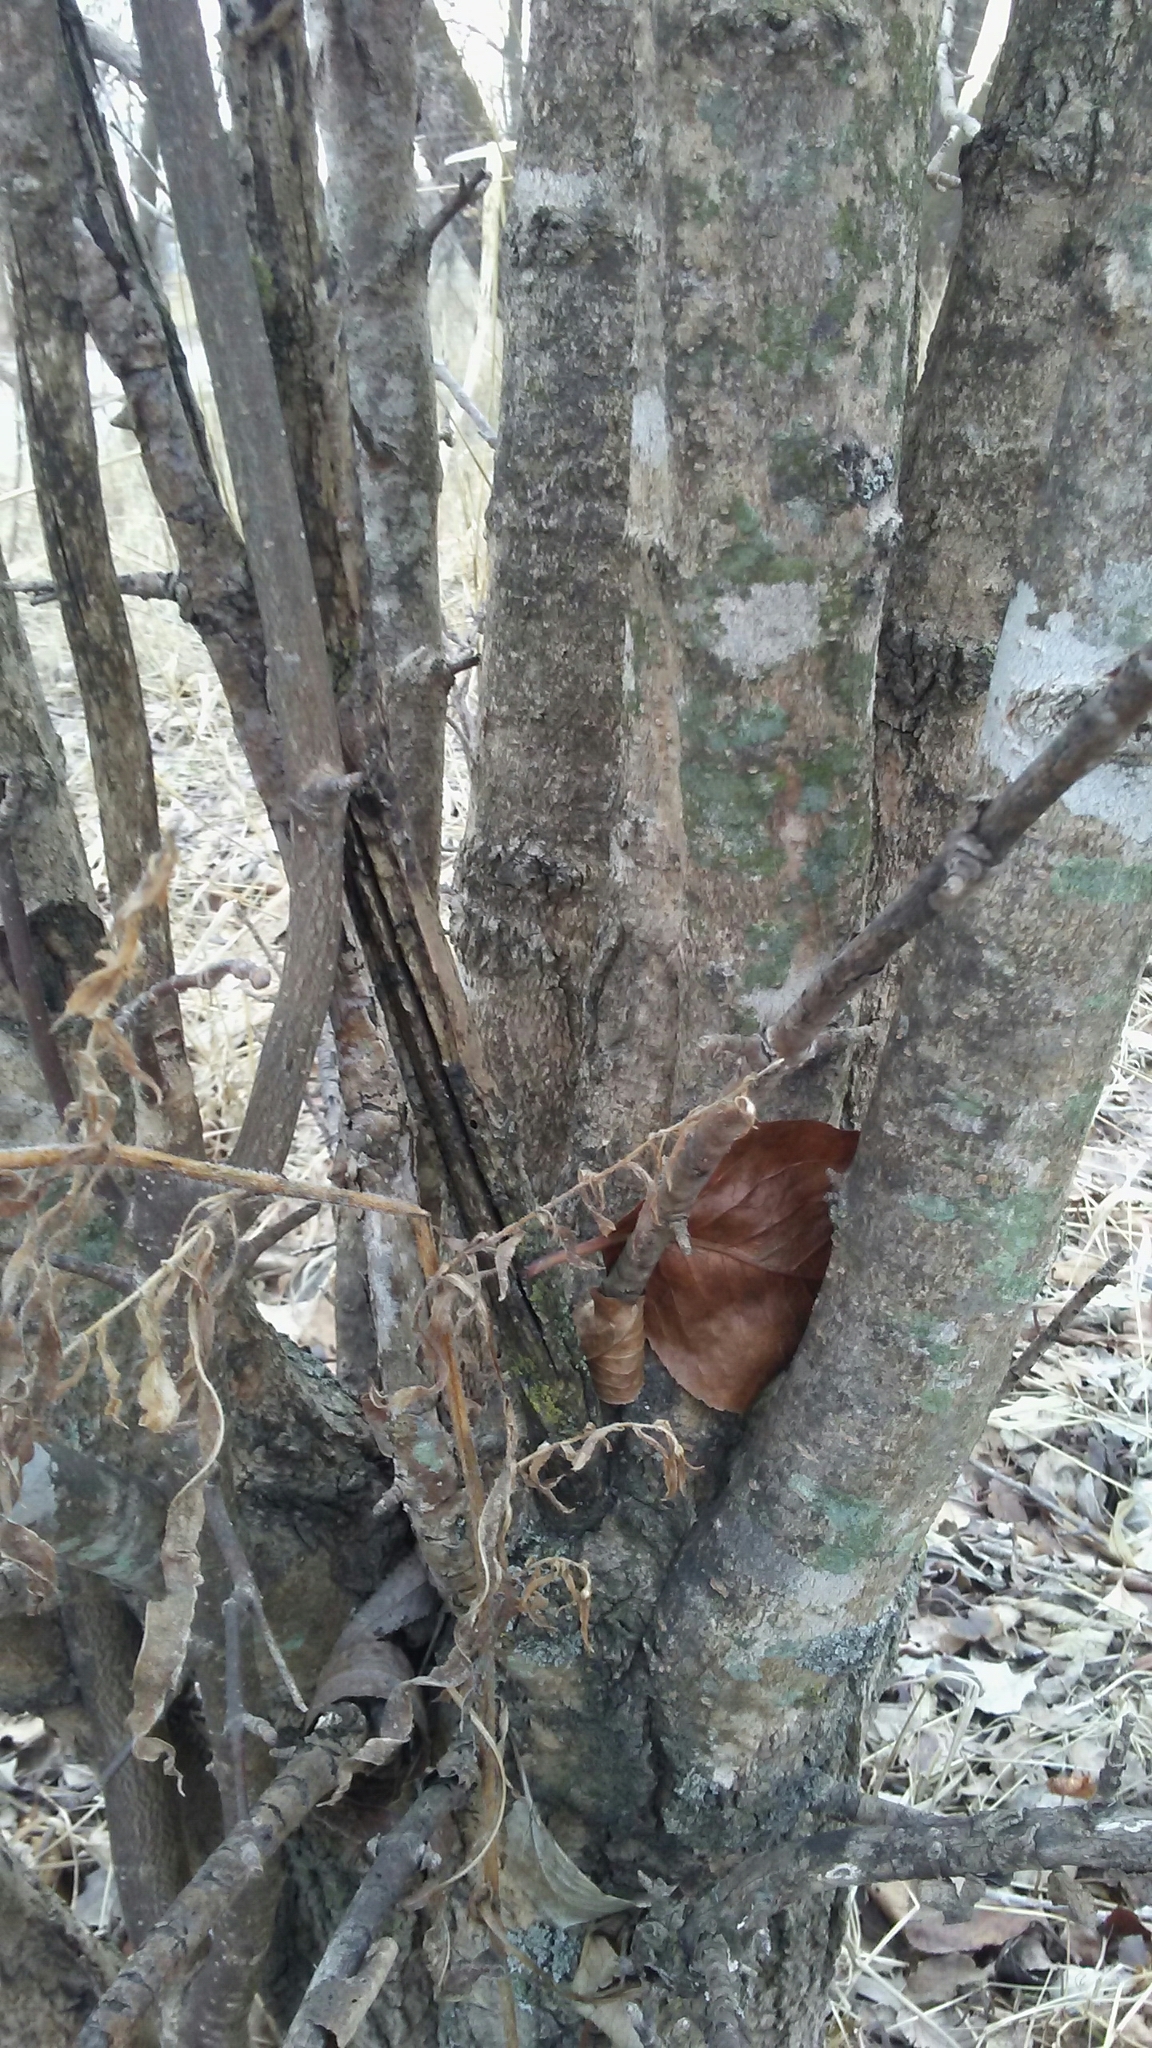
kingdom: Plantae
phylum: Tracheophyta
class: Magnoliopsida
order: Dipsacales
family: Viburnaceae
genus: Viburnum
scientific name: Viburnum prunifolium
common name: Black haw
